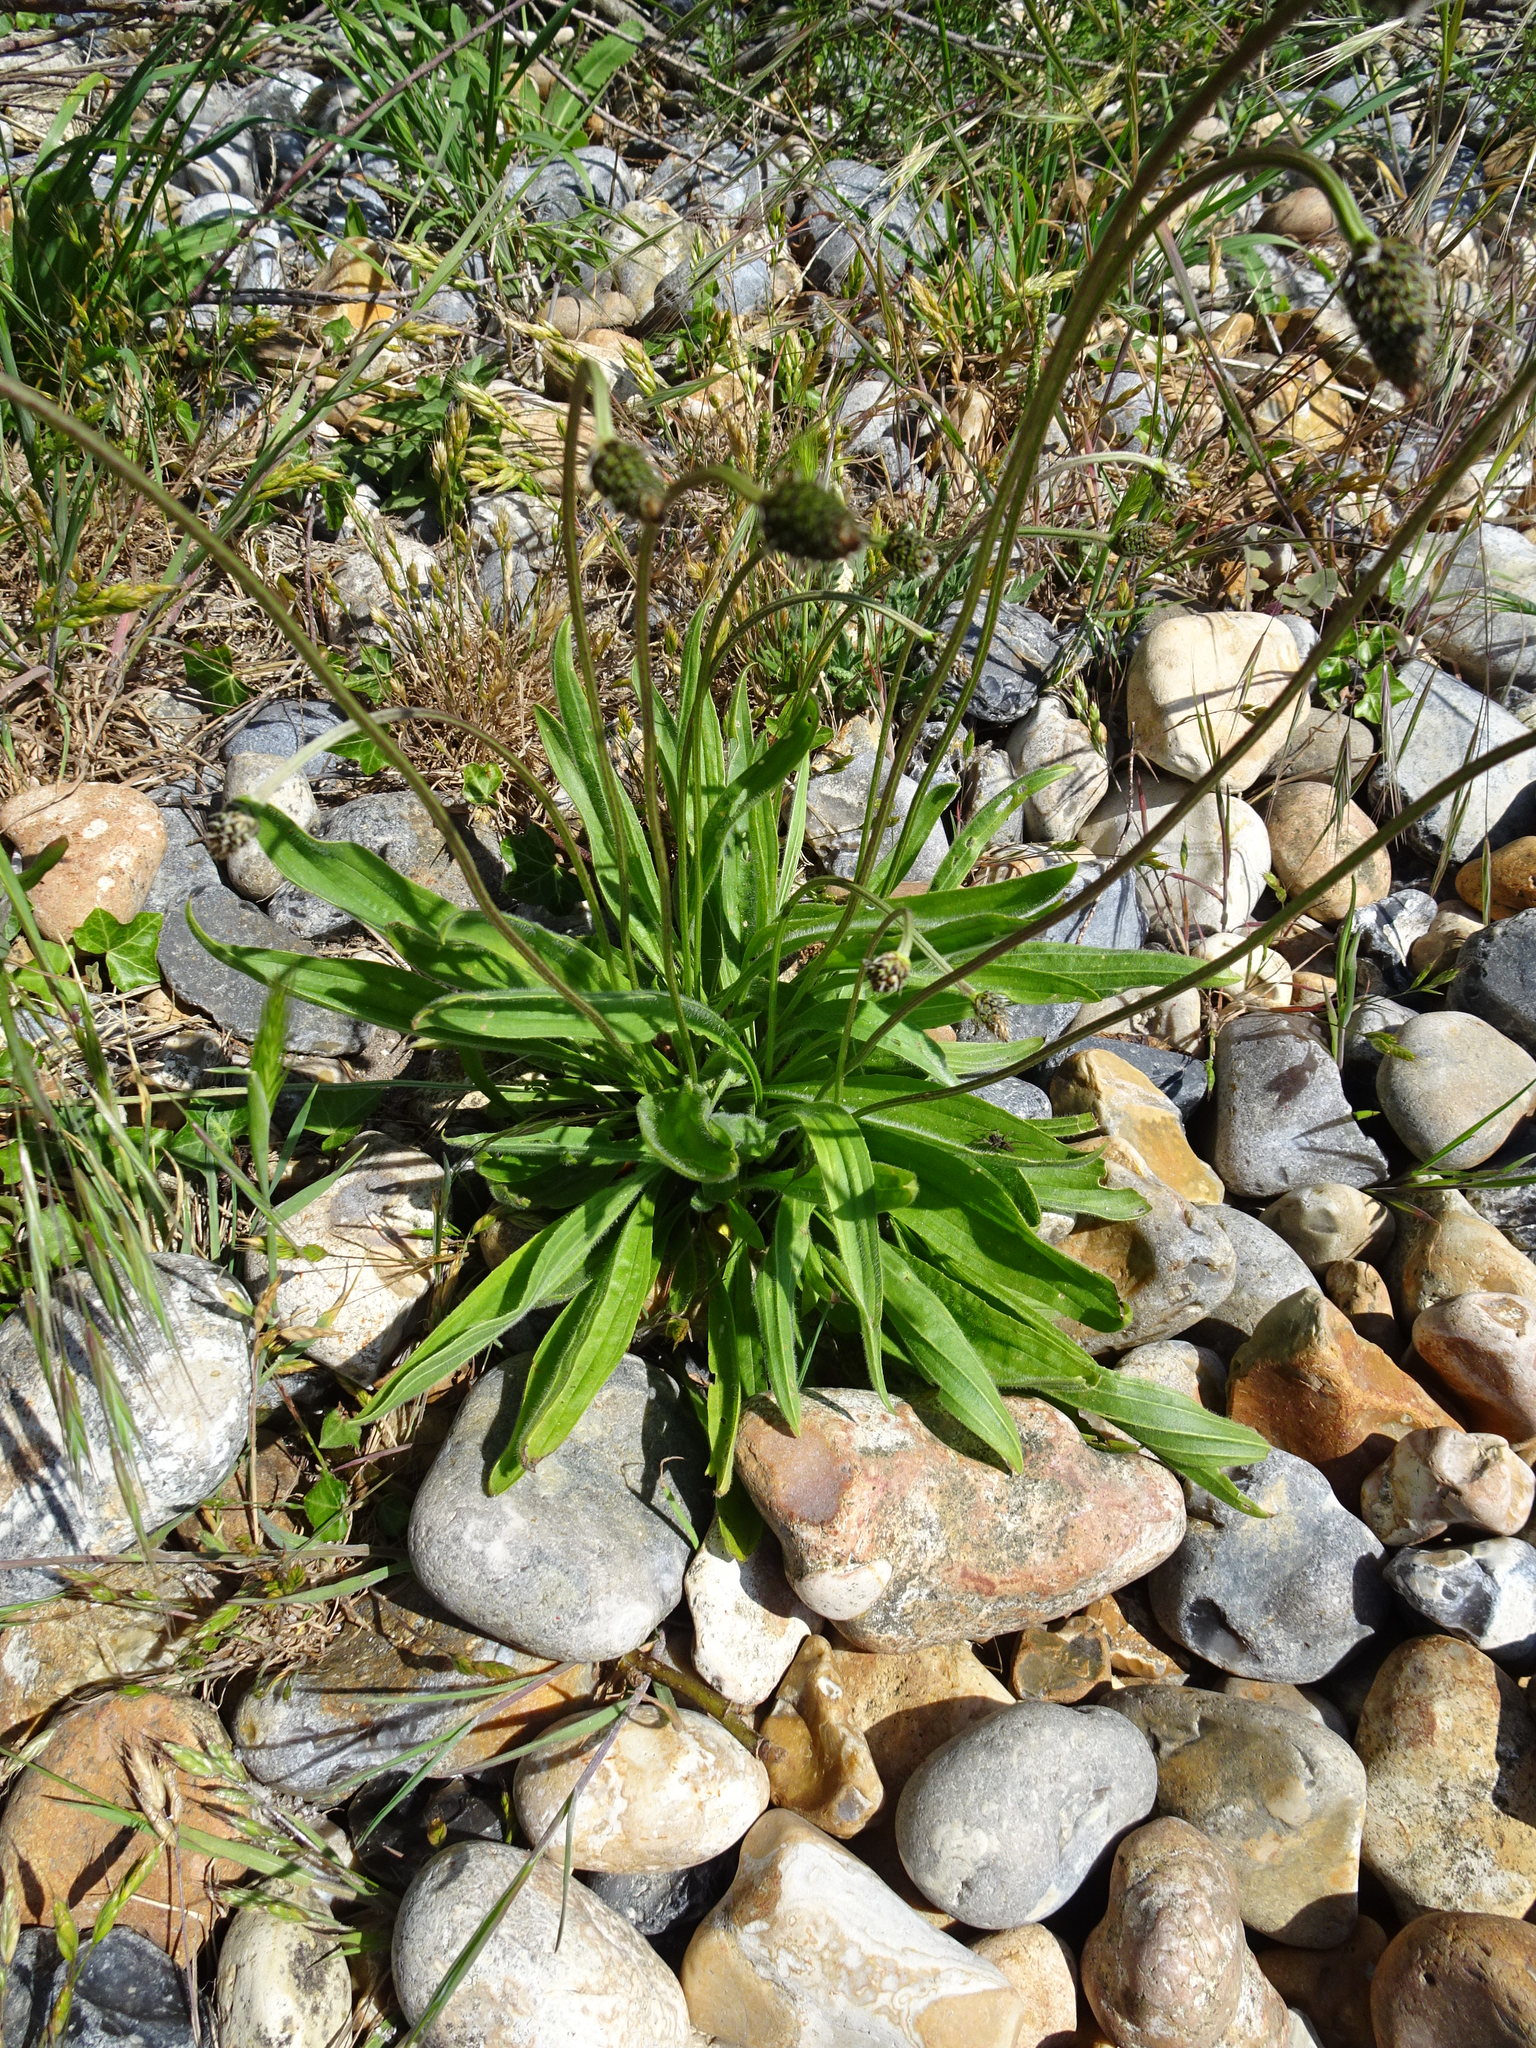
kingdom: Plantae
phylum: Tracheophyta
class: Magnoliopsida
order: Lamiales
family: Plantaginaceae
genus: Plantago
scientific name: Plantago lanceolata
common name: Ribwort plantain
